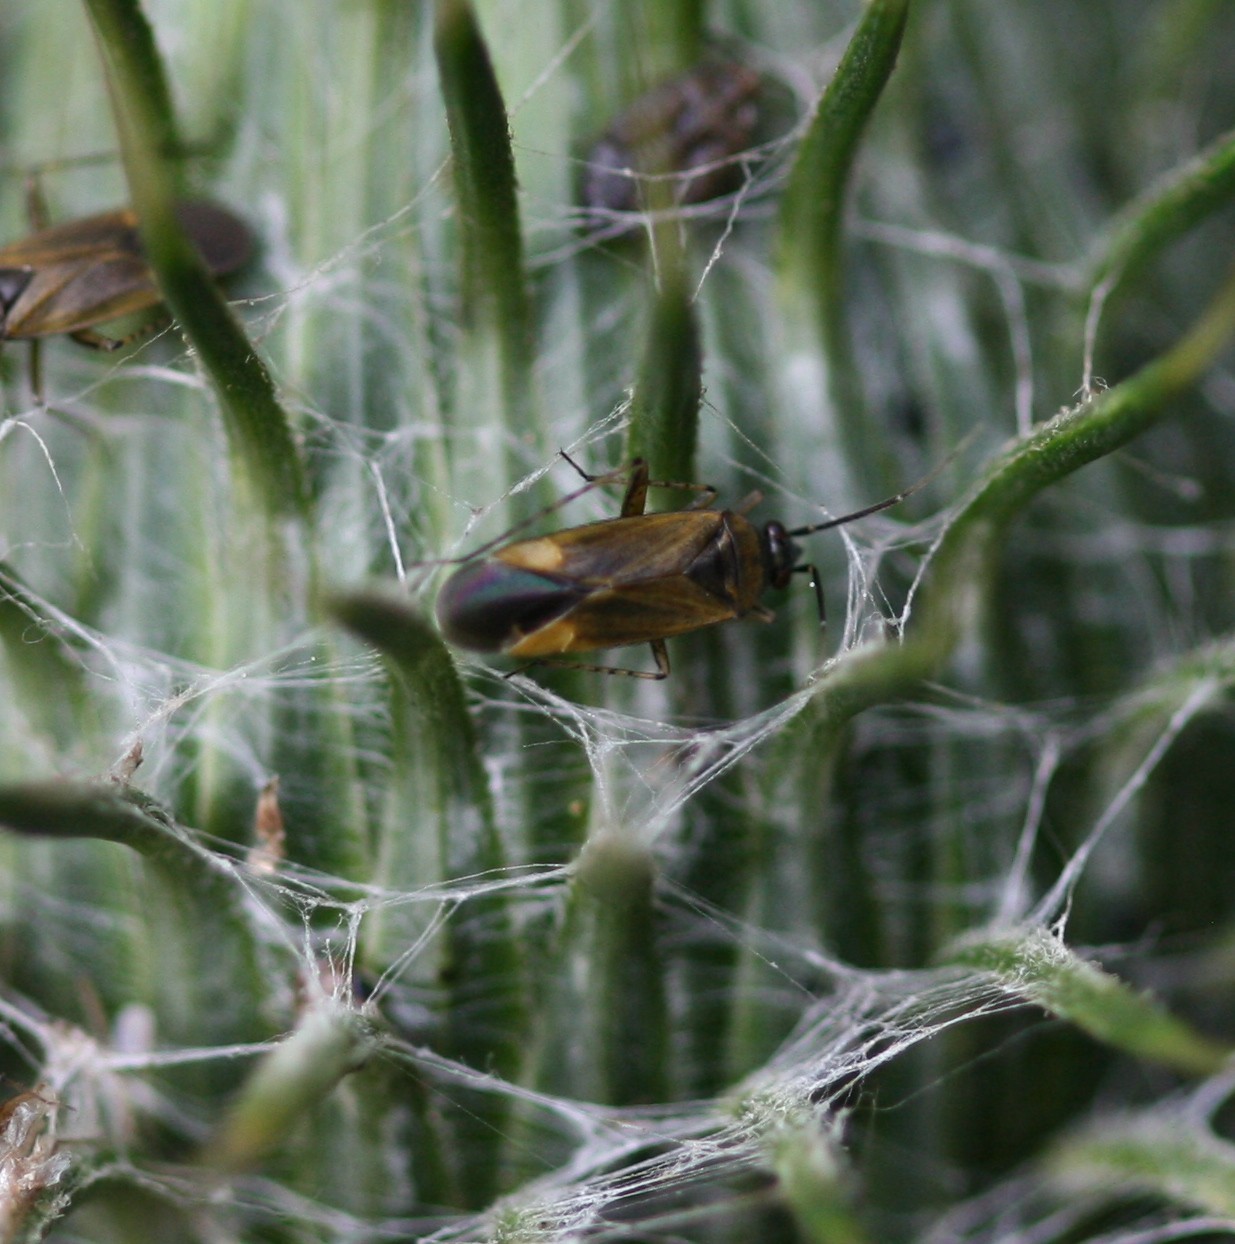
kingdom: Animalia
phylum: Arthropoda
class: Insecta
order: Hemiptera
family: Miridae
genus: Plagiognathus
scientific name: Plagiognathus arbustorum
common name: Plant bug
